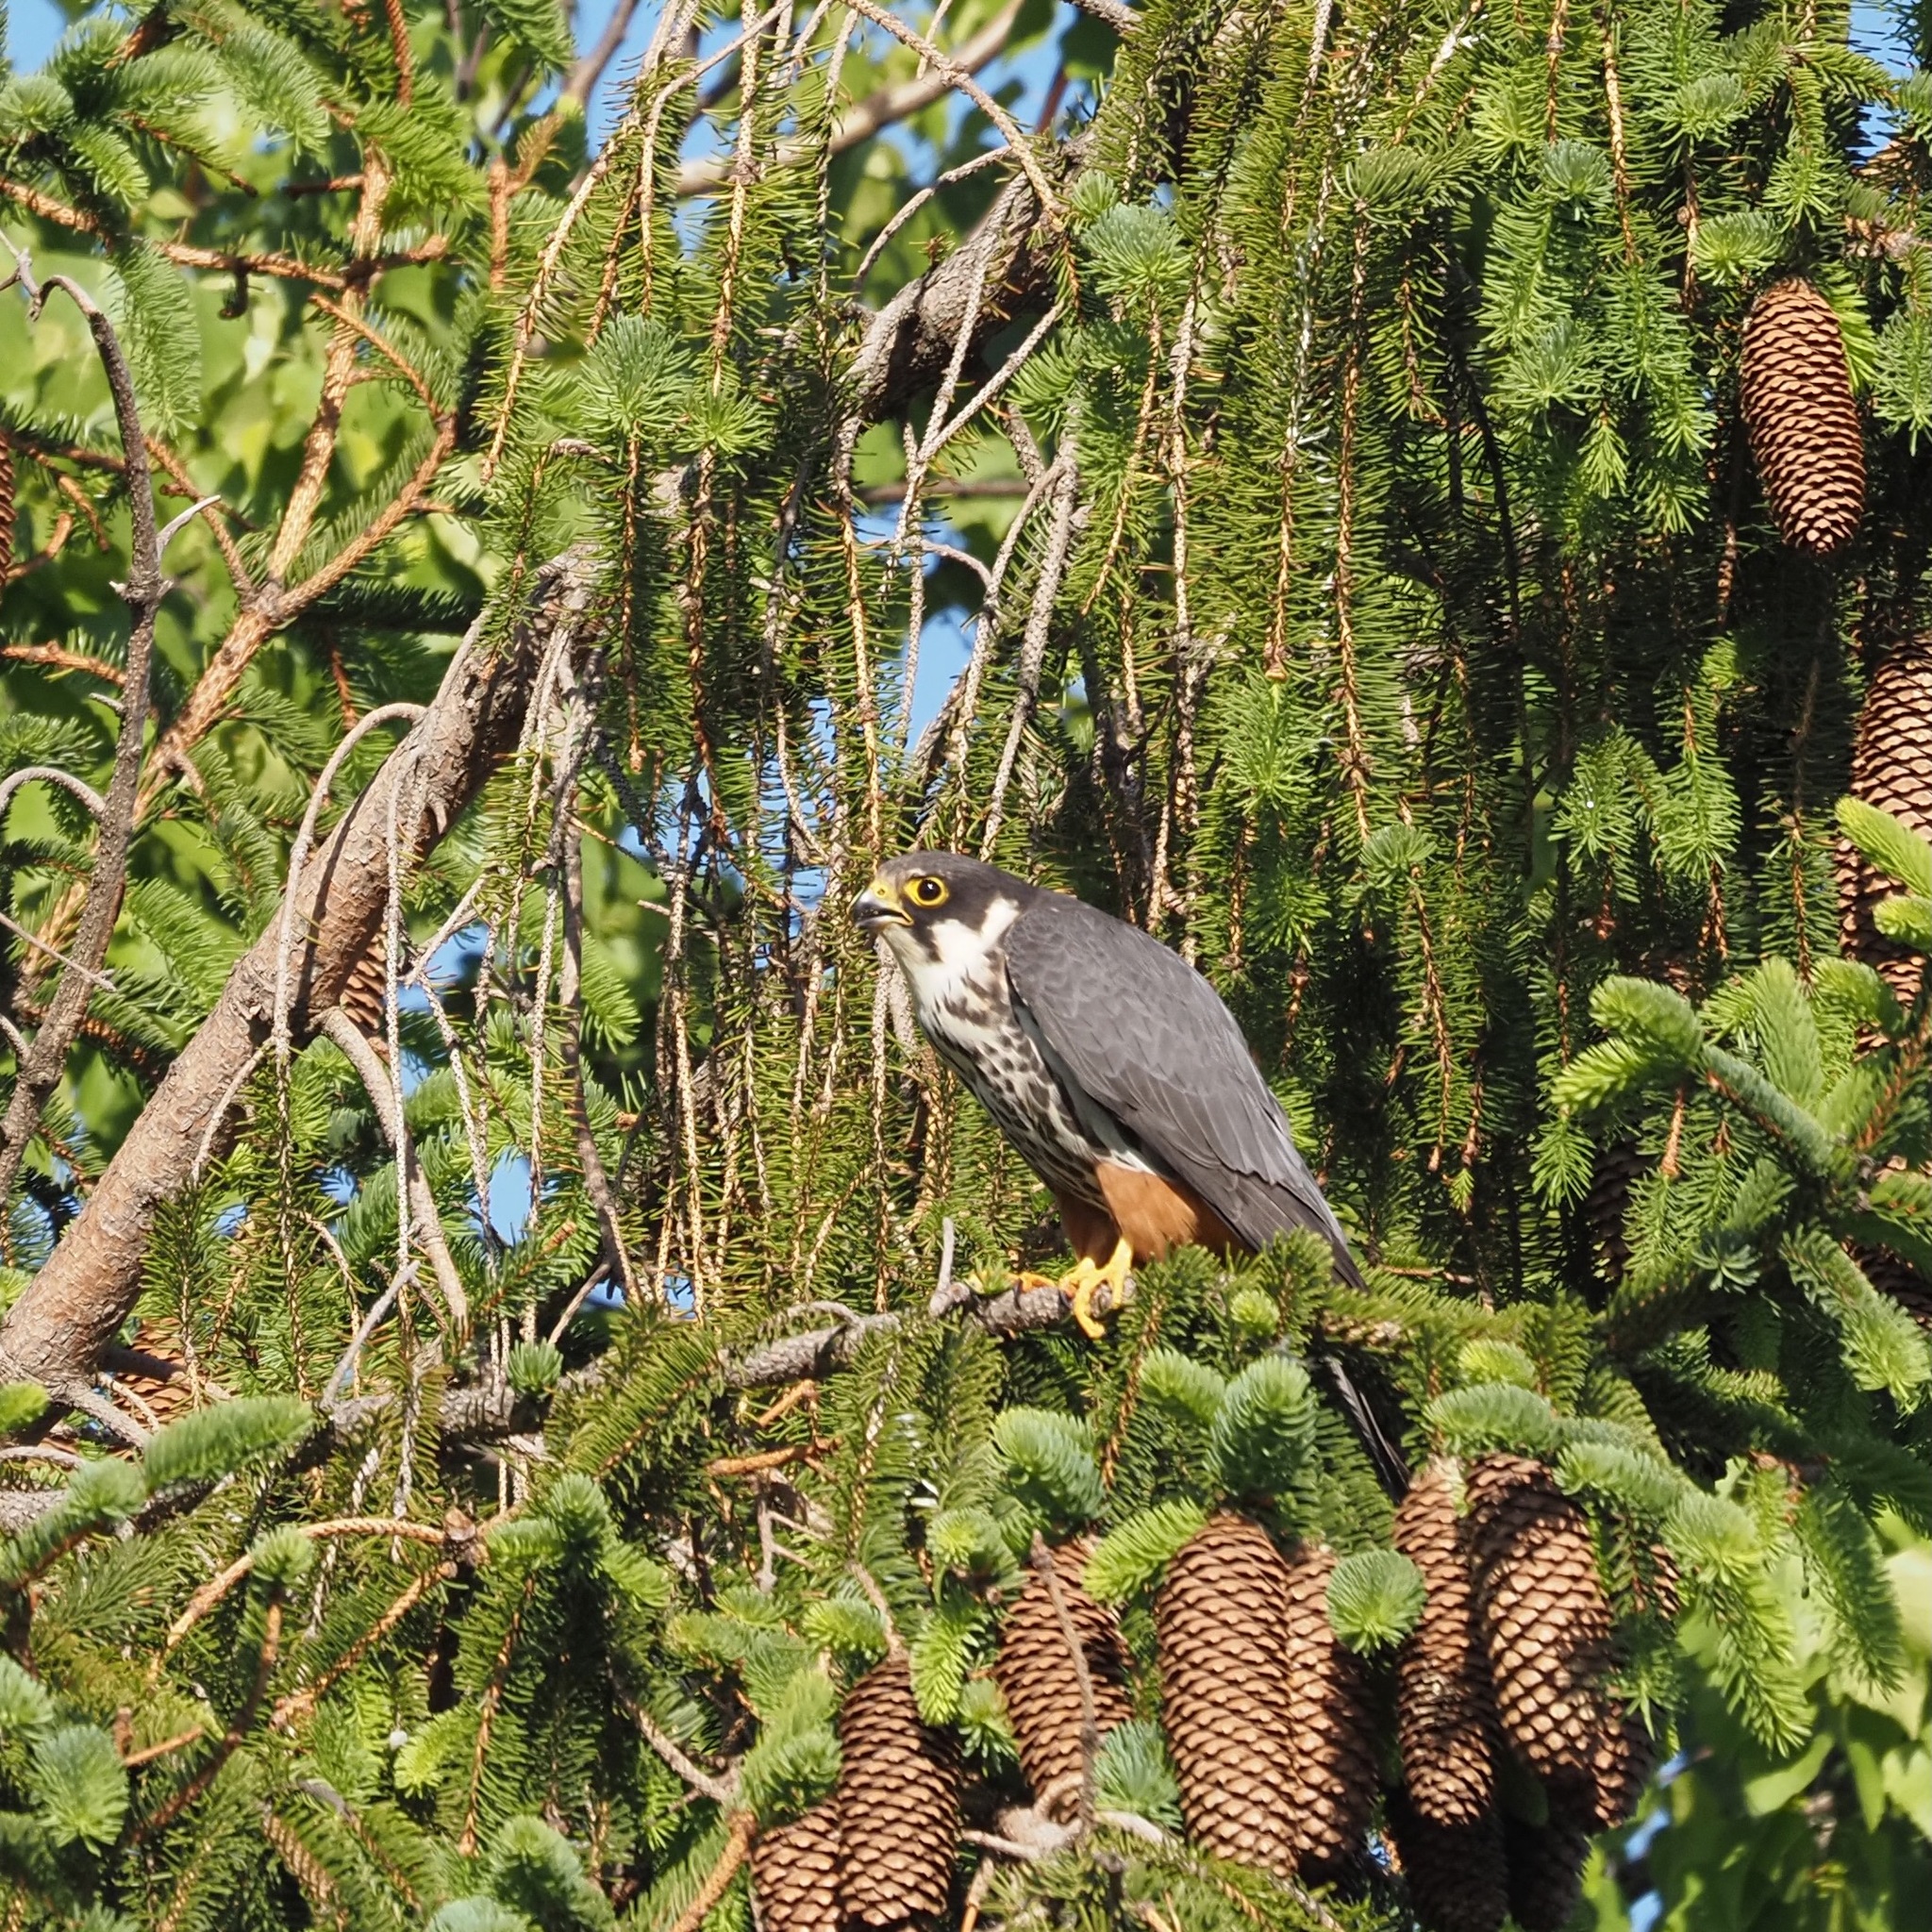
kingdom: Animalia
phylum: Chordata
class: Aves
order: Falconiformes
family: Falconidae
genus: Falco
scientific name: Falco subbuteo
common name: Eurasian hobby
